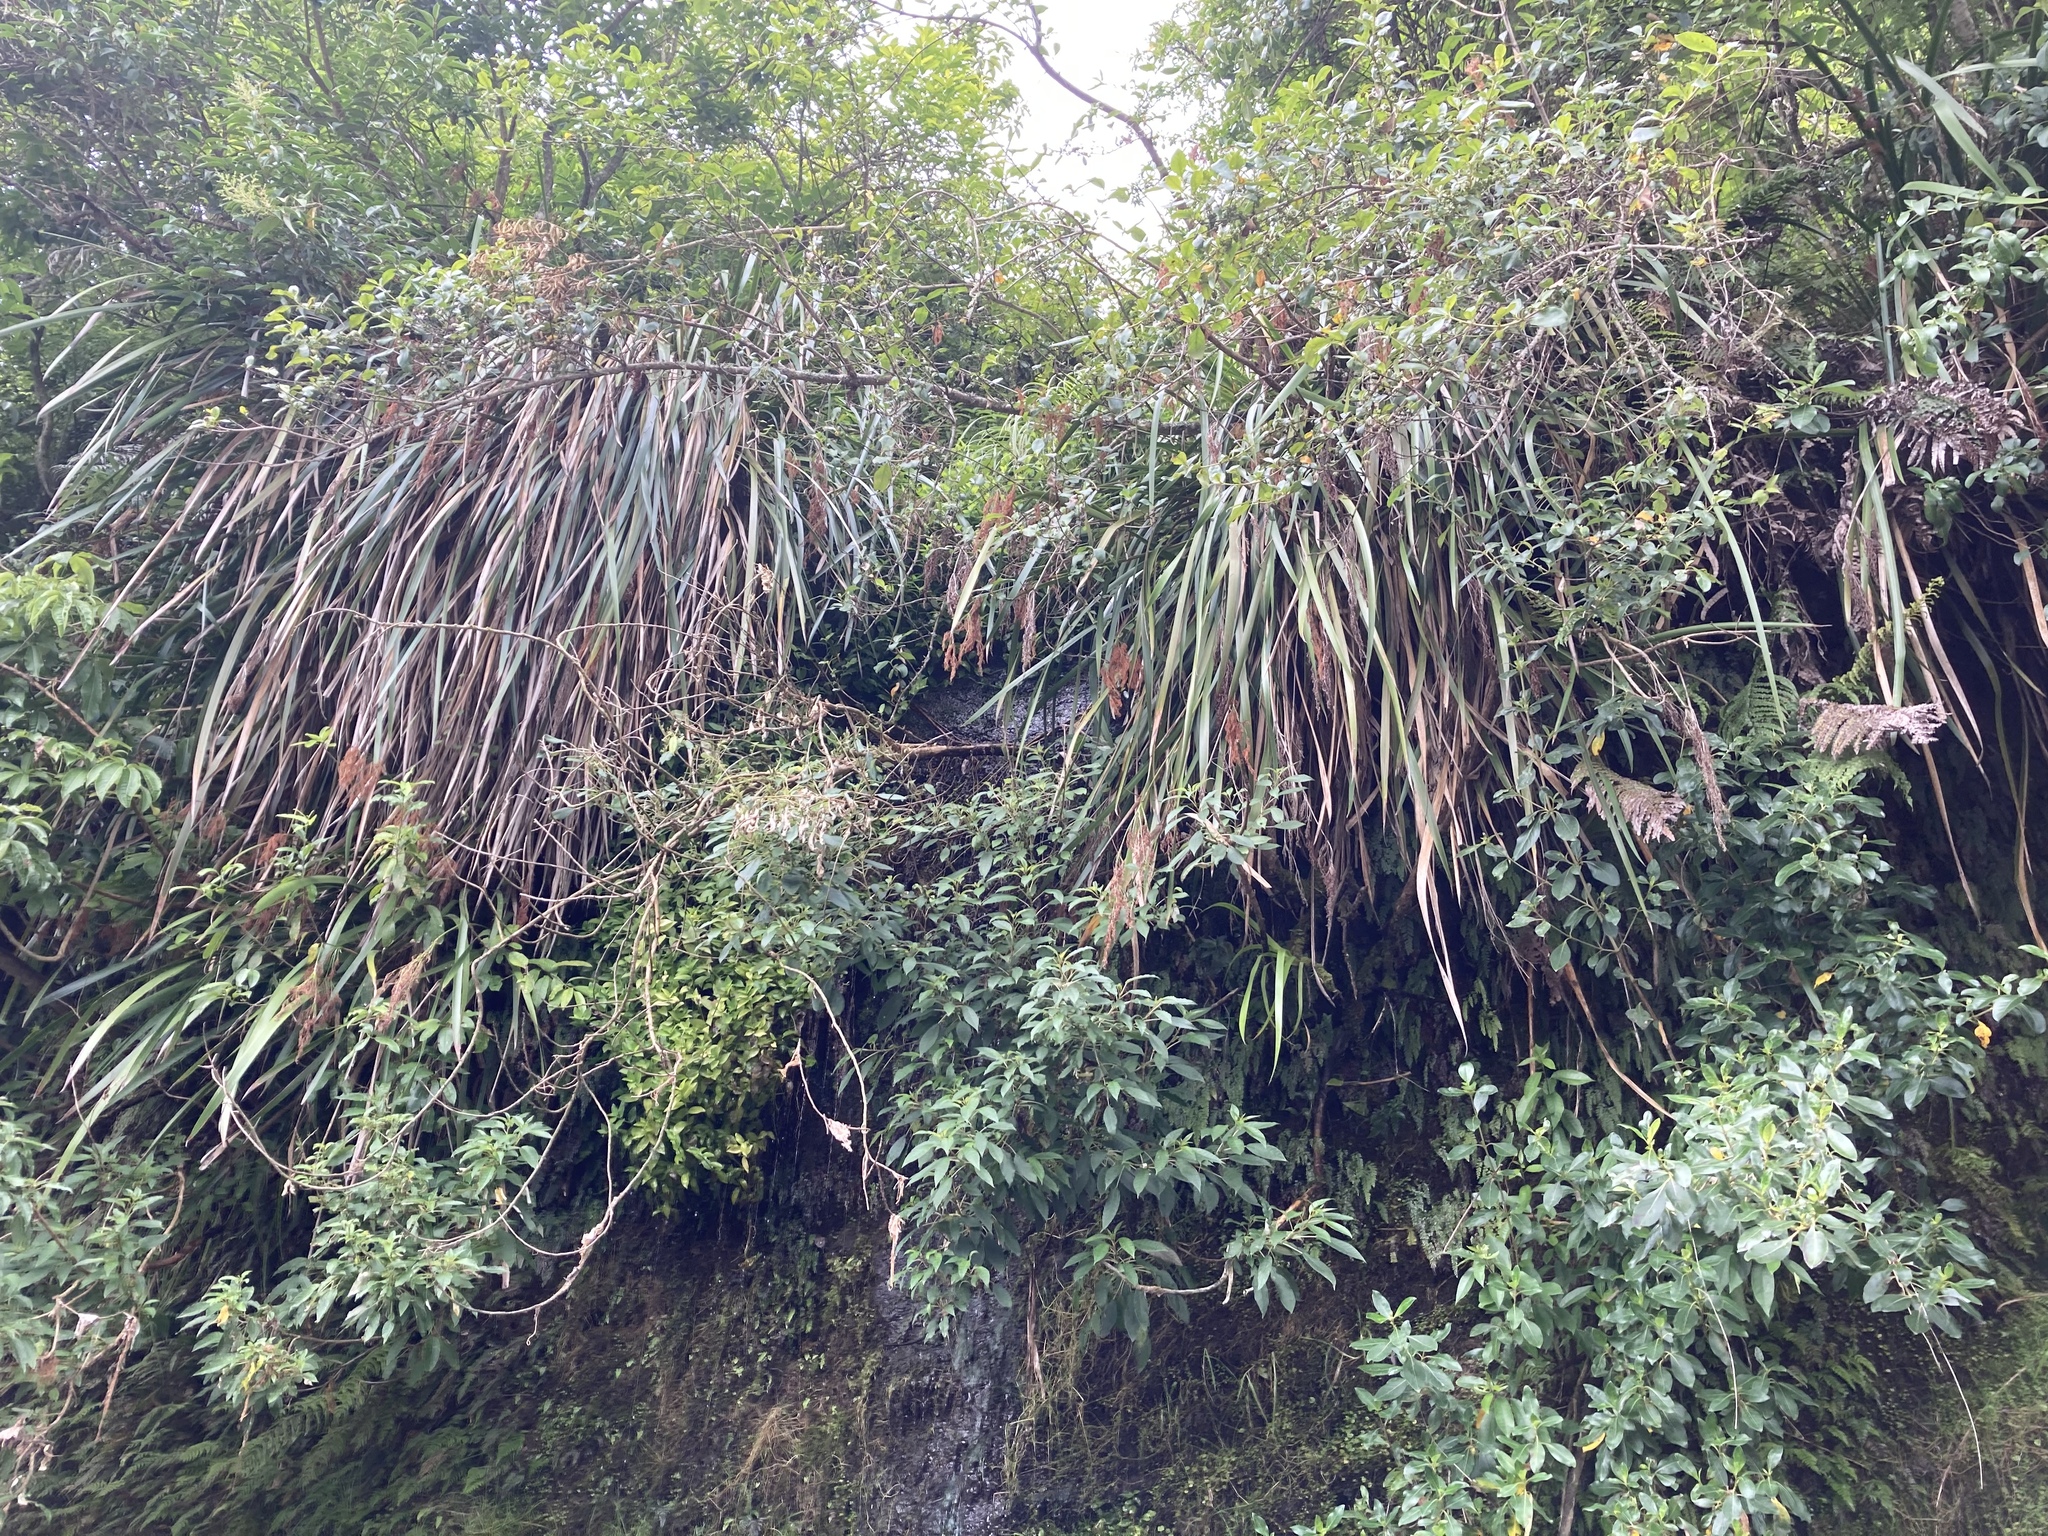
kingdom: Plantae
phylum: Tracheophyta
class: Liliopsida
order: Poales
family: Cyperaceae
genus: Machaerina
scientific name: Machaerina sinclairii
